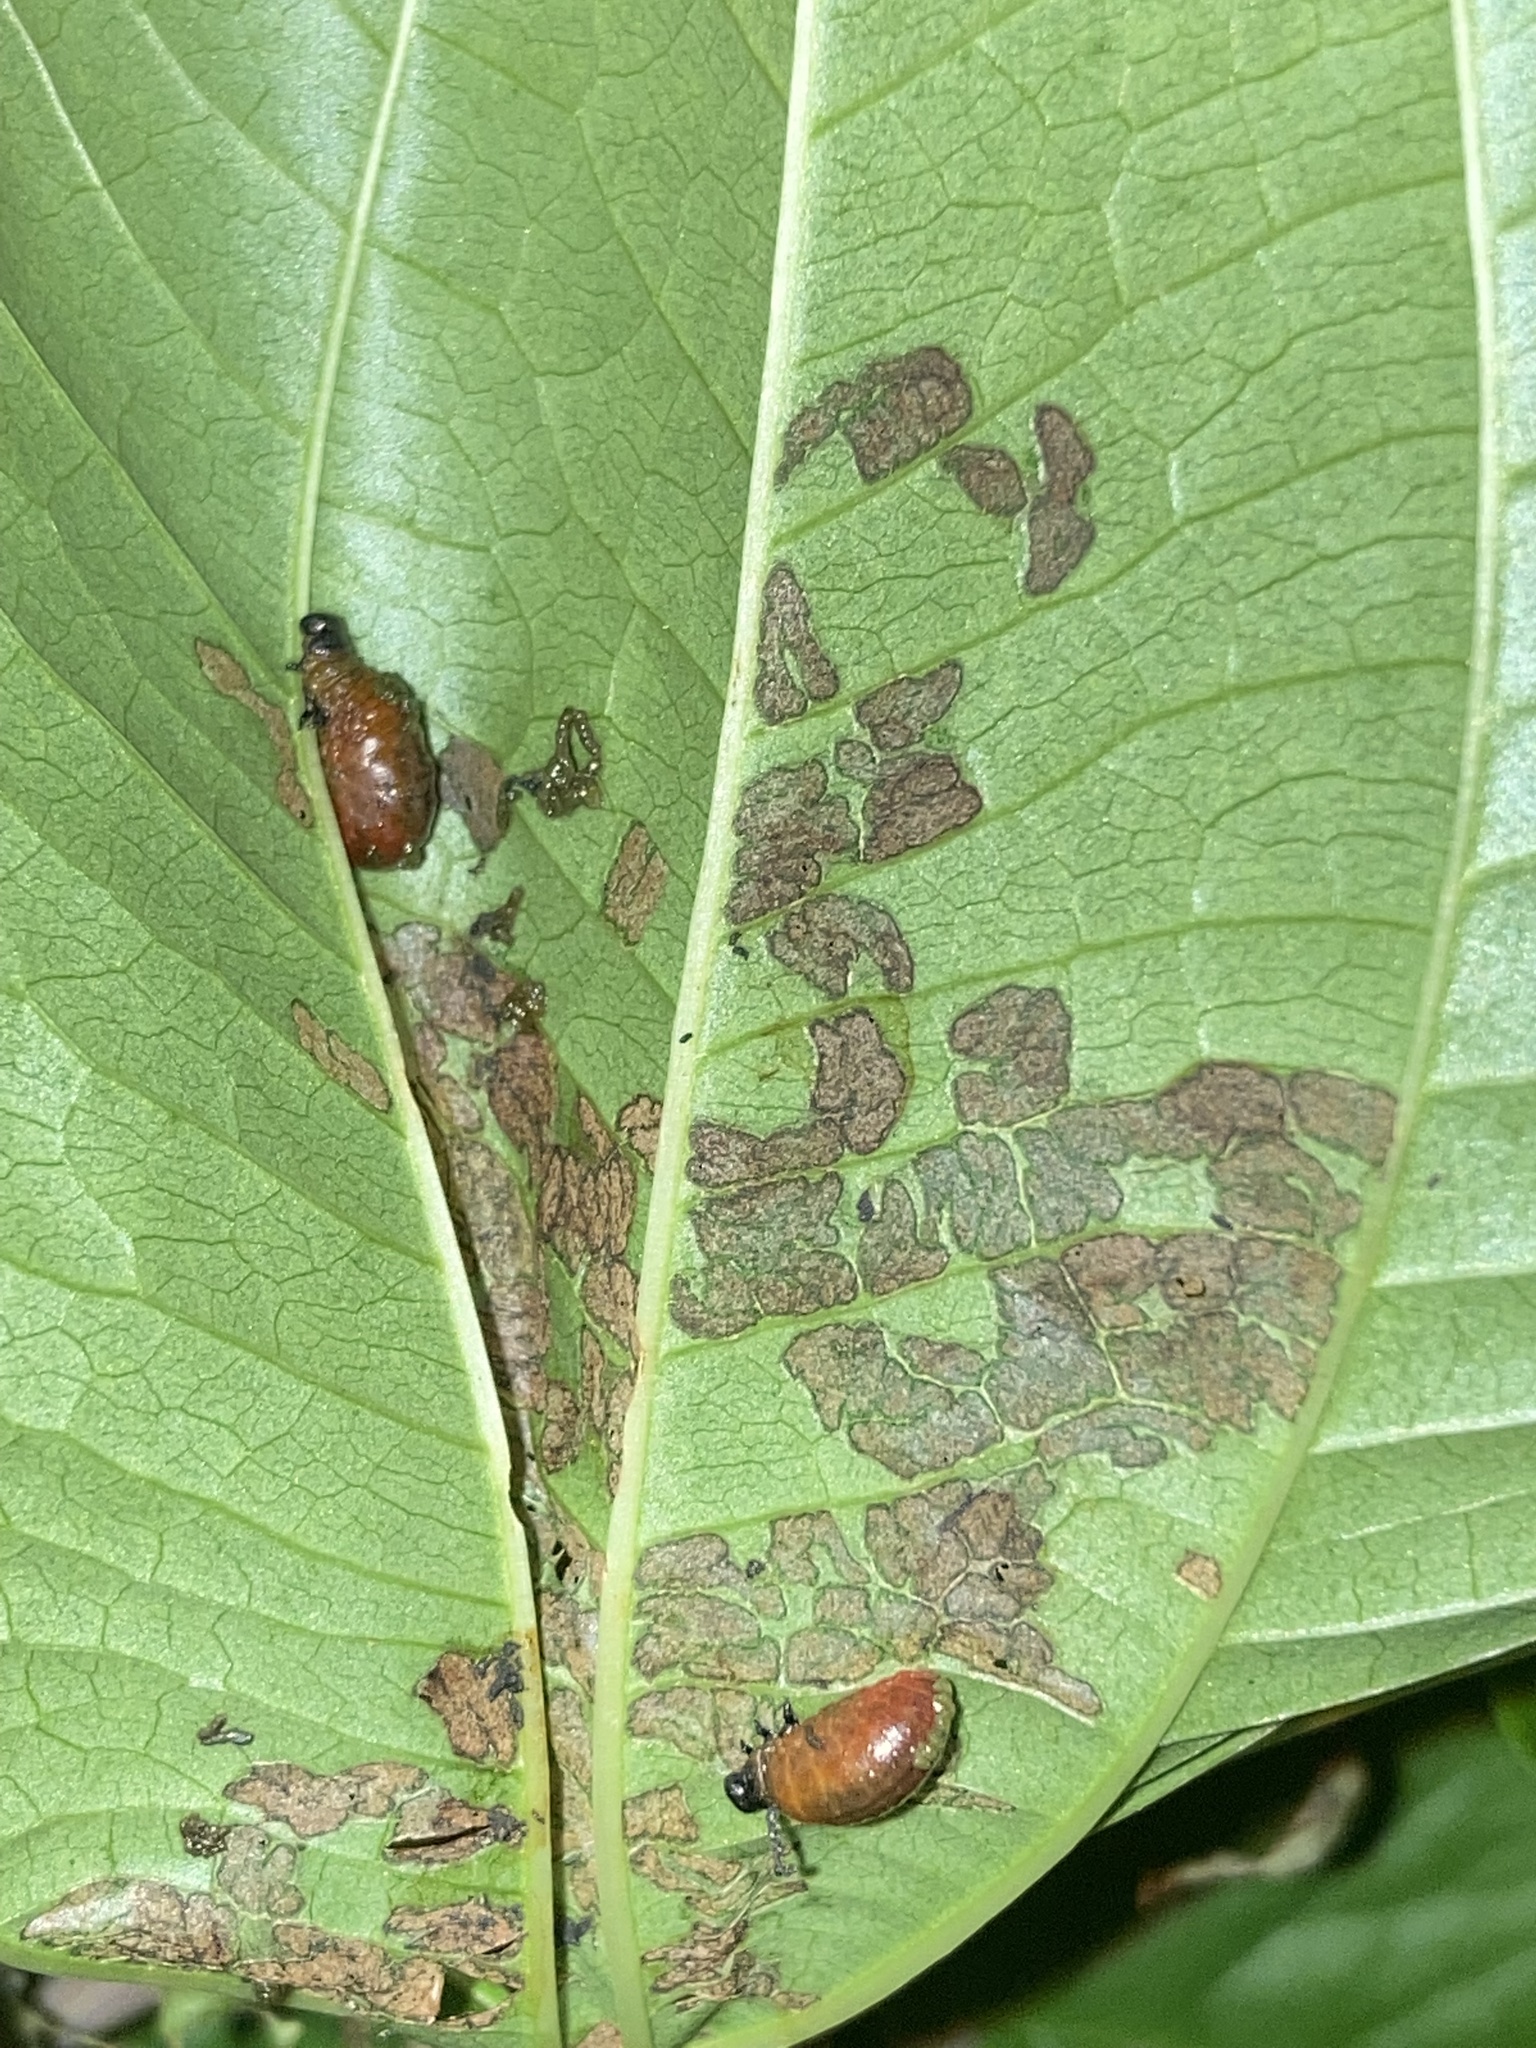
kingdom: Animalia
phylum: Arthropoda
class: Insecta
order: Coleoptera
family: Chrysomelidae
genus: Lilioceris
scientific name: Lilioceris cheni
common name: Leaf beetle
